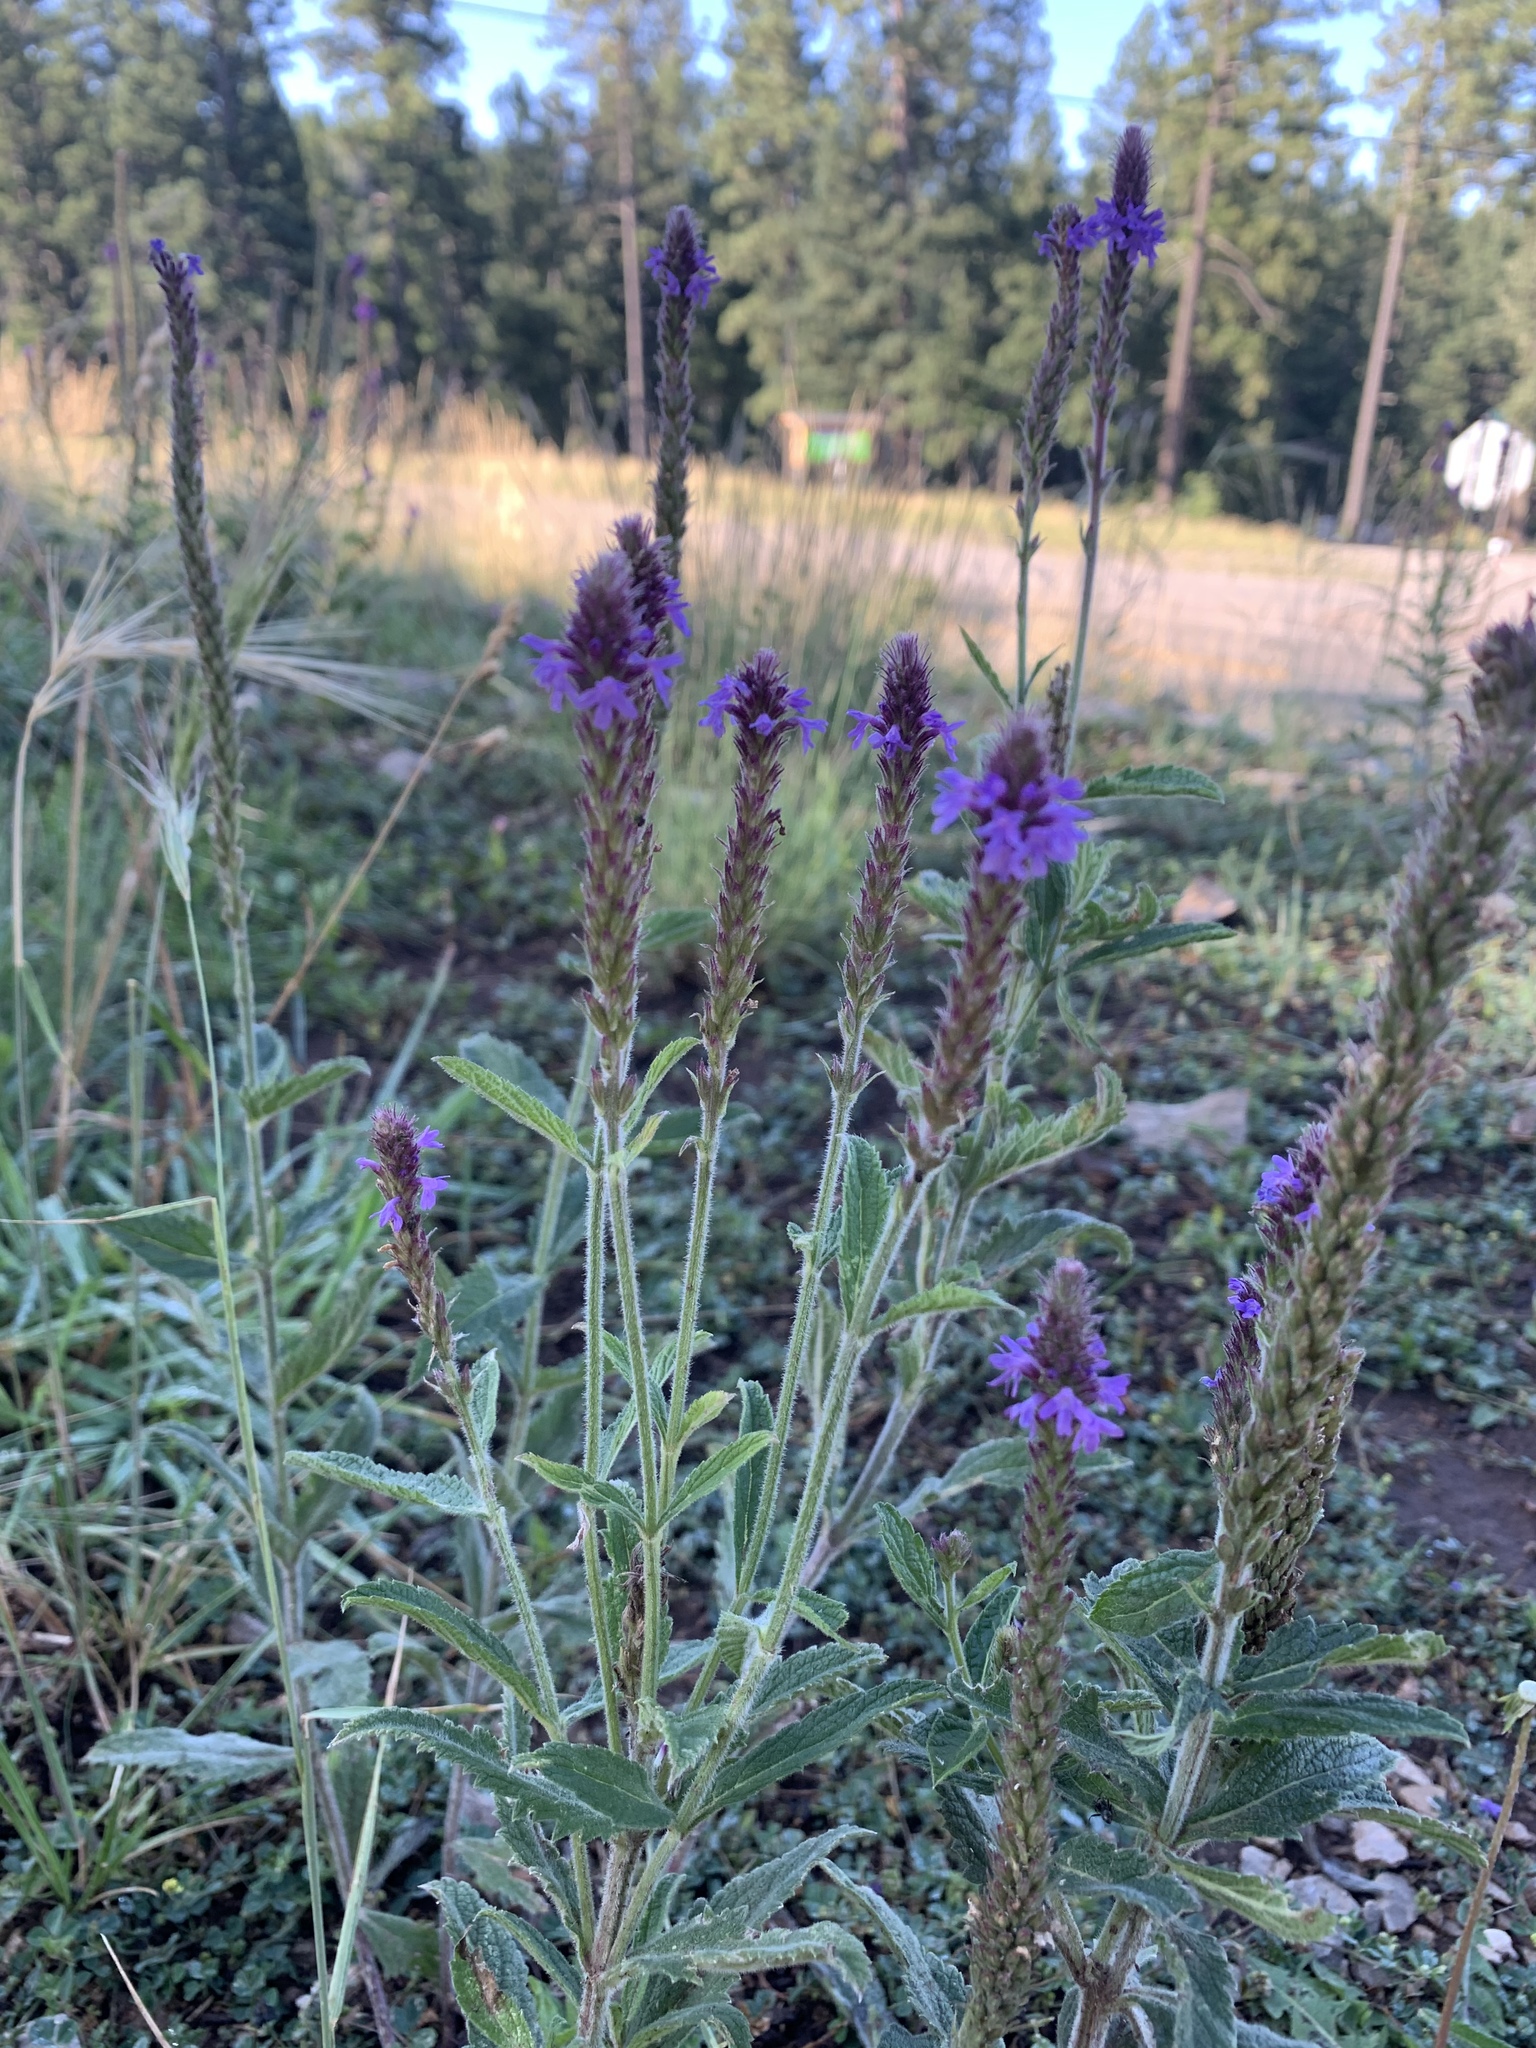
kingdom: Plantae
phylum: Tracheophyta
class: Magnoliopsida
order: Lamiales
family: Verbenaceae
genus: Verbena
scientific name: Verbena macdougalii
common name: New mexico vervain
